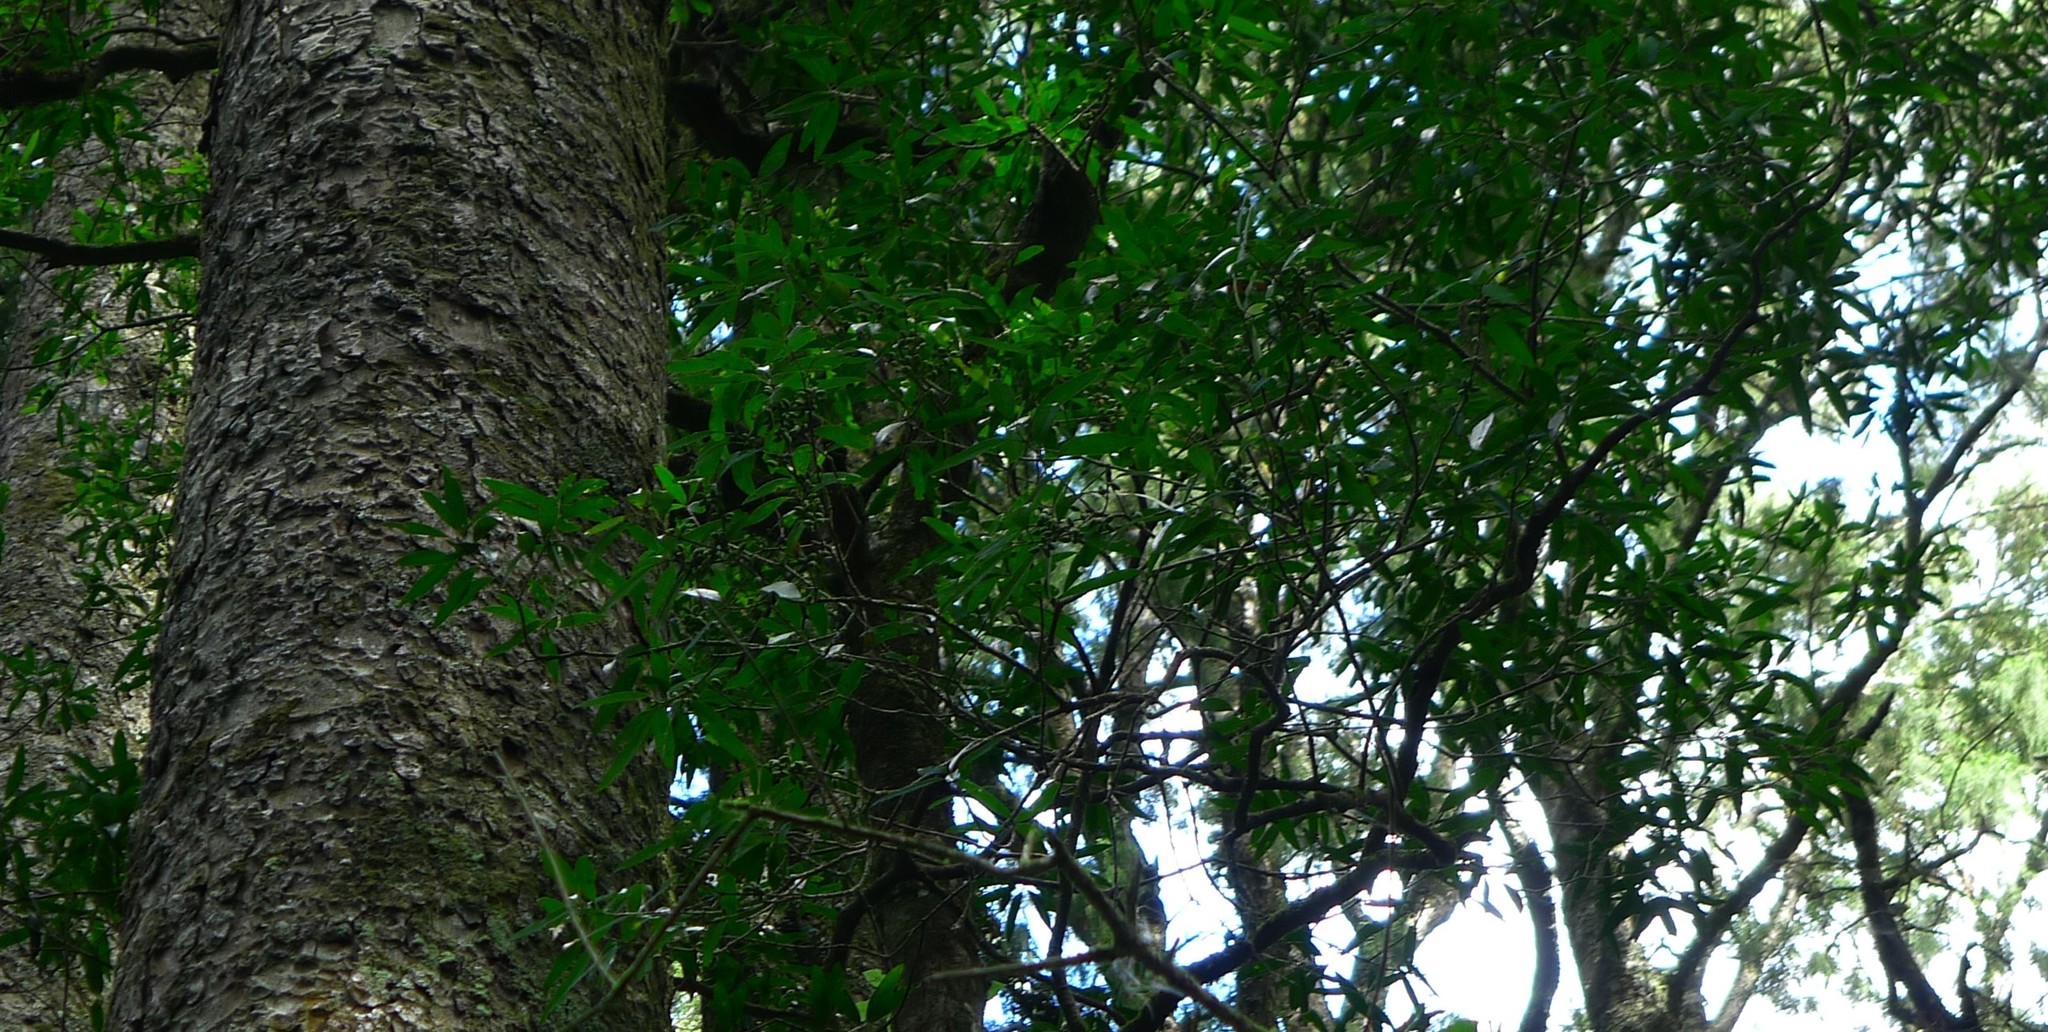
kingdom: Plantae
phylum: Tracheophyta
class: Magnoliopsida
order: Lamiales
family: Oleaceae
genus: Nestegis
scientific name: Nestegis cunninghamii
